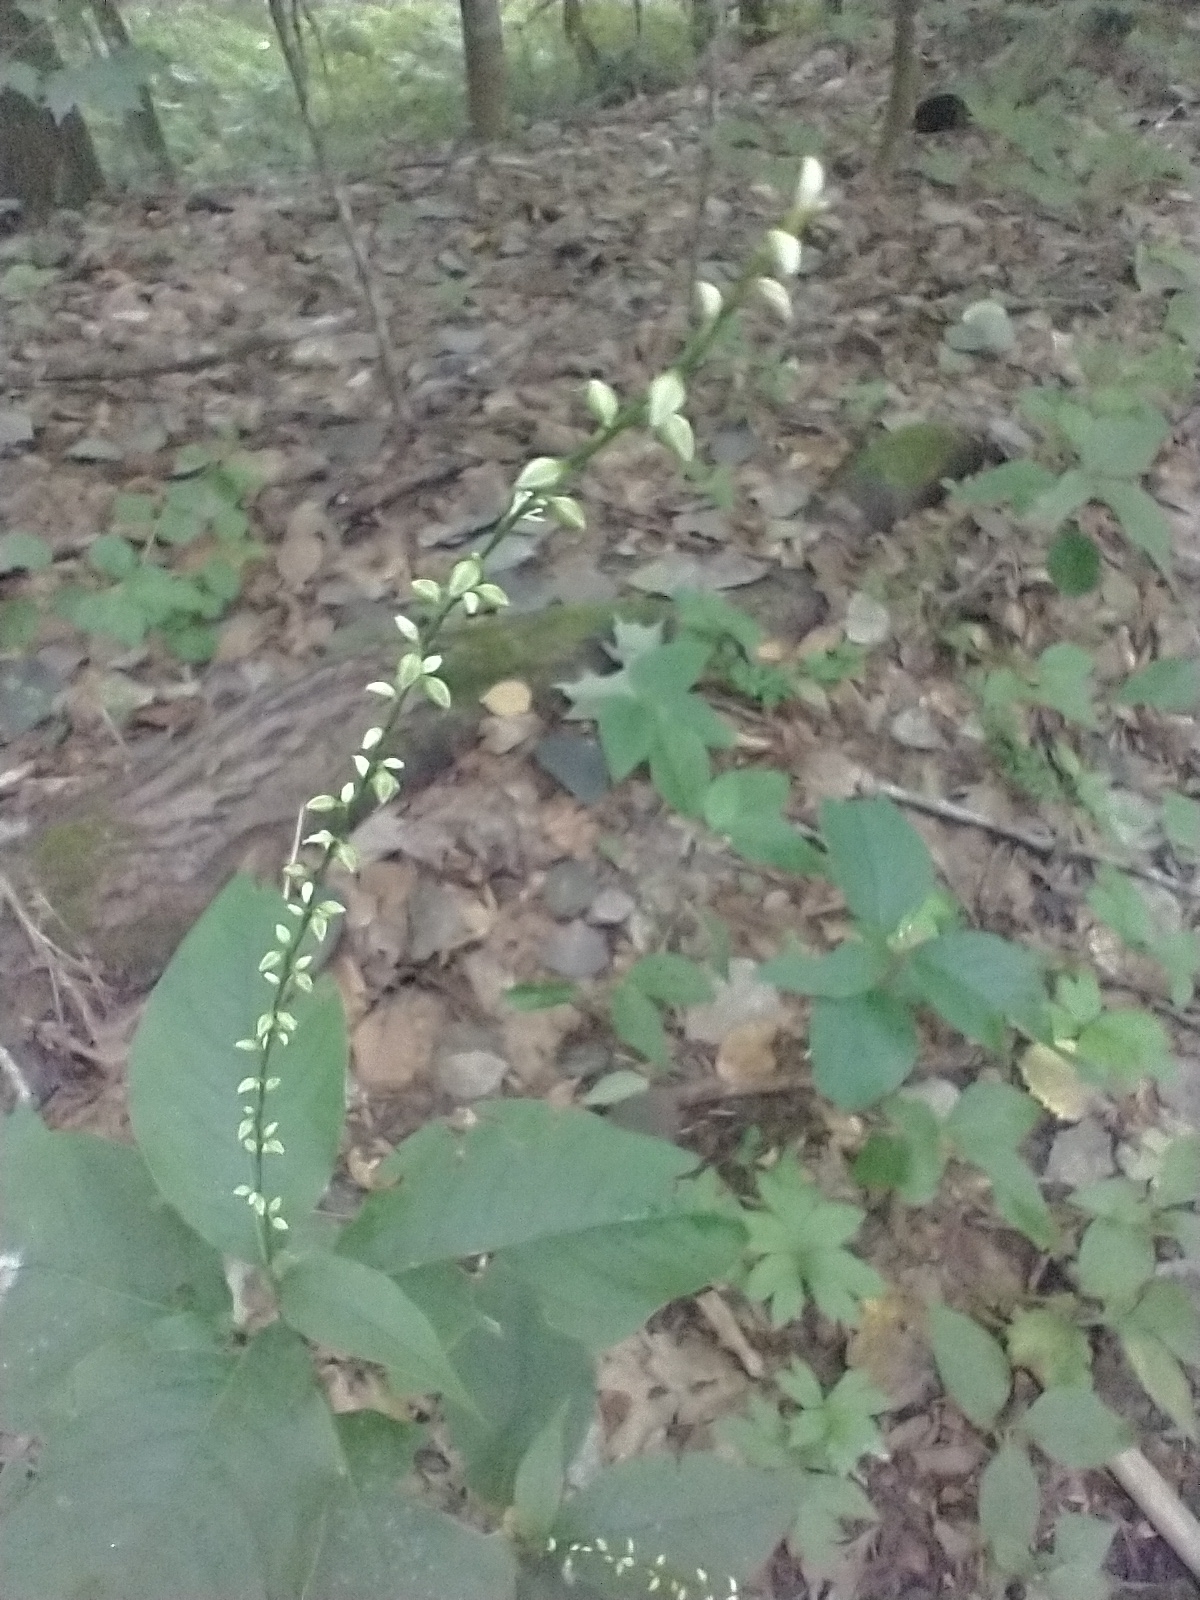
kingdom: Plantae
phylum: Tracheophyta
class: Magnoliopsida
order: Caryophyllales
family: Polygonaceae
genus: Persicaria
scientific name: Persicaria virginiana
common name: Jumpseed
